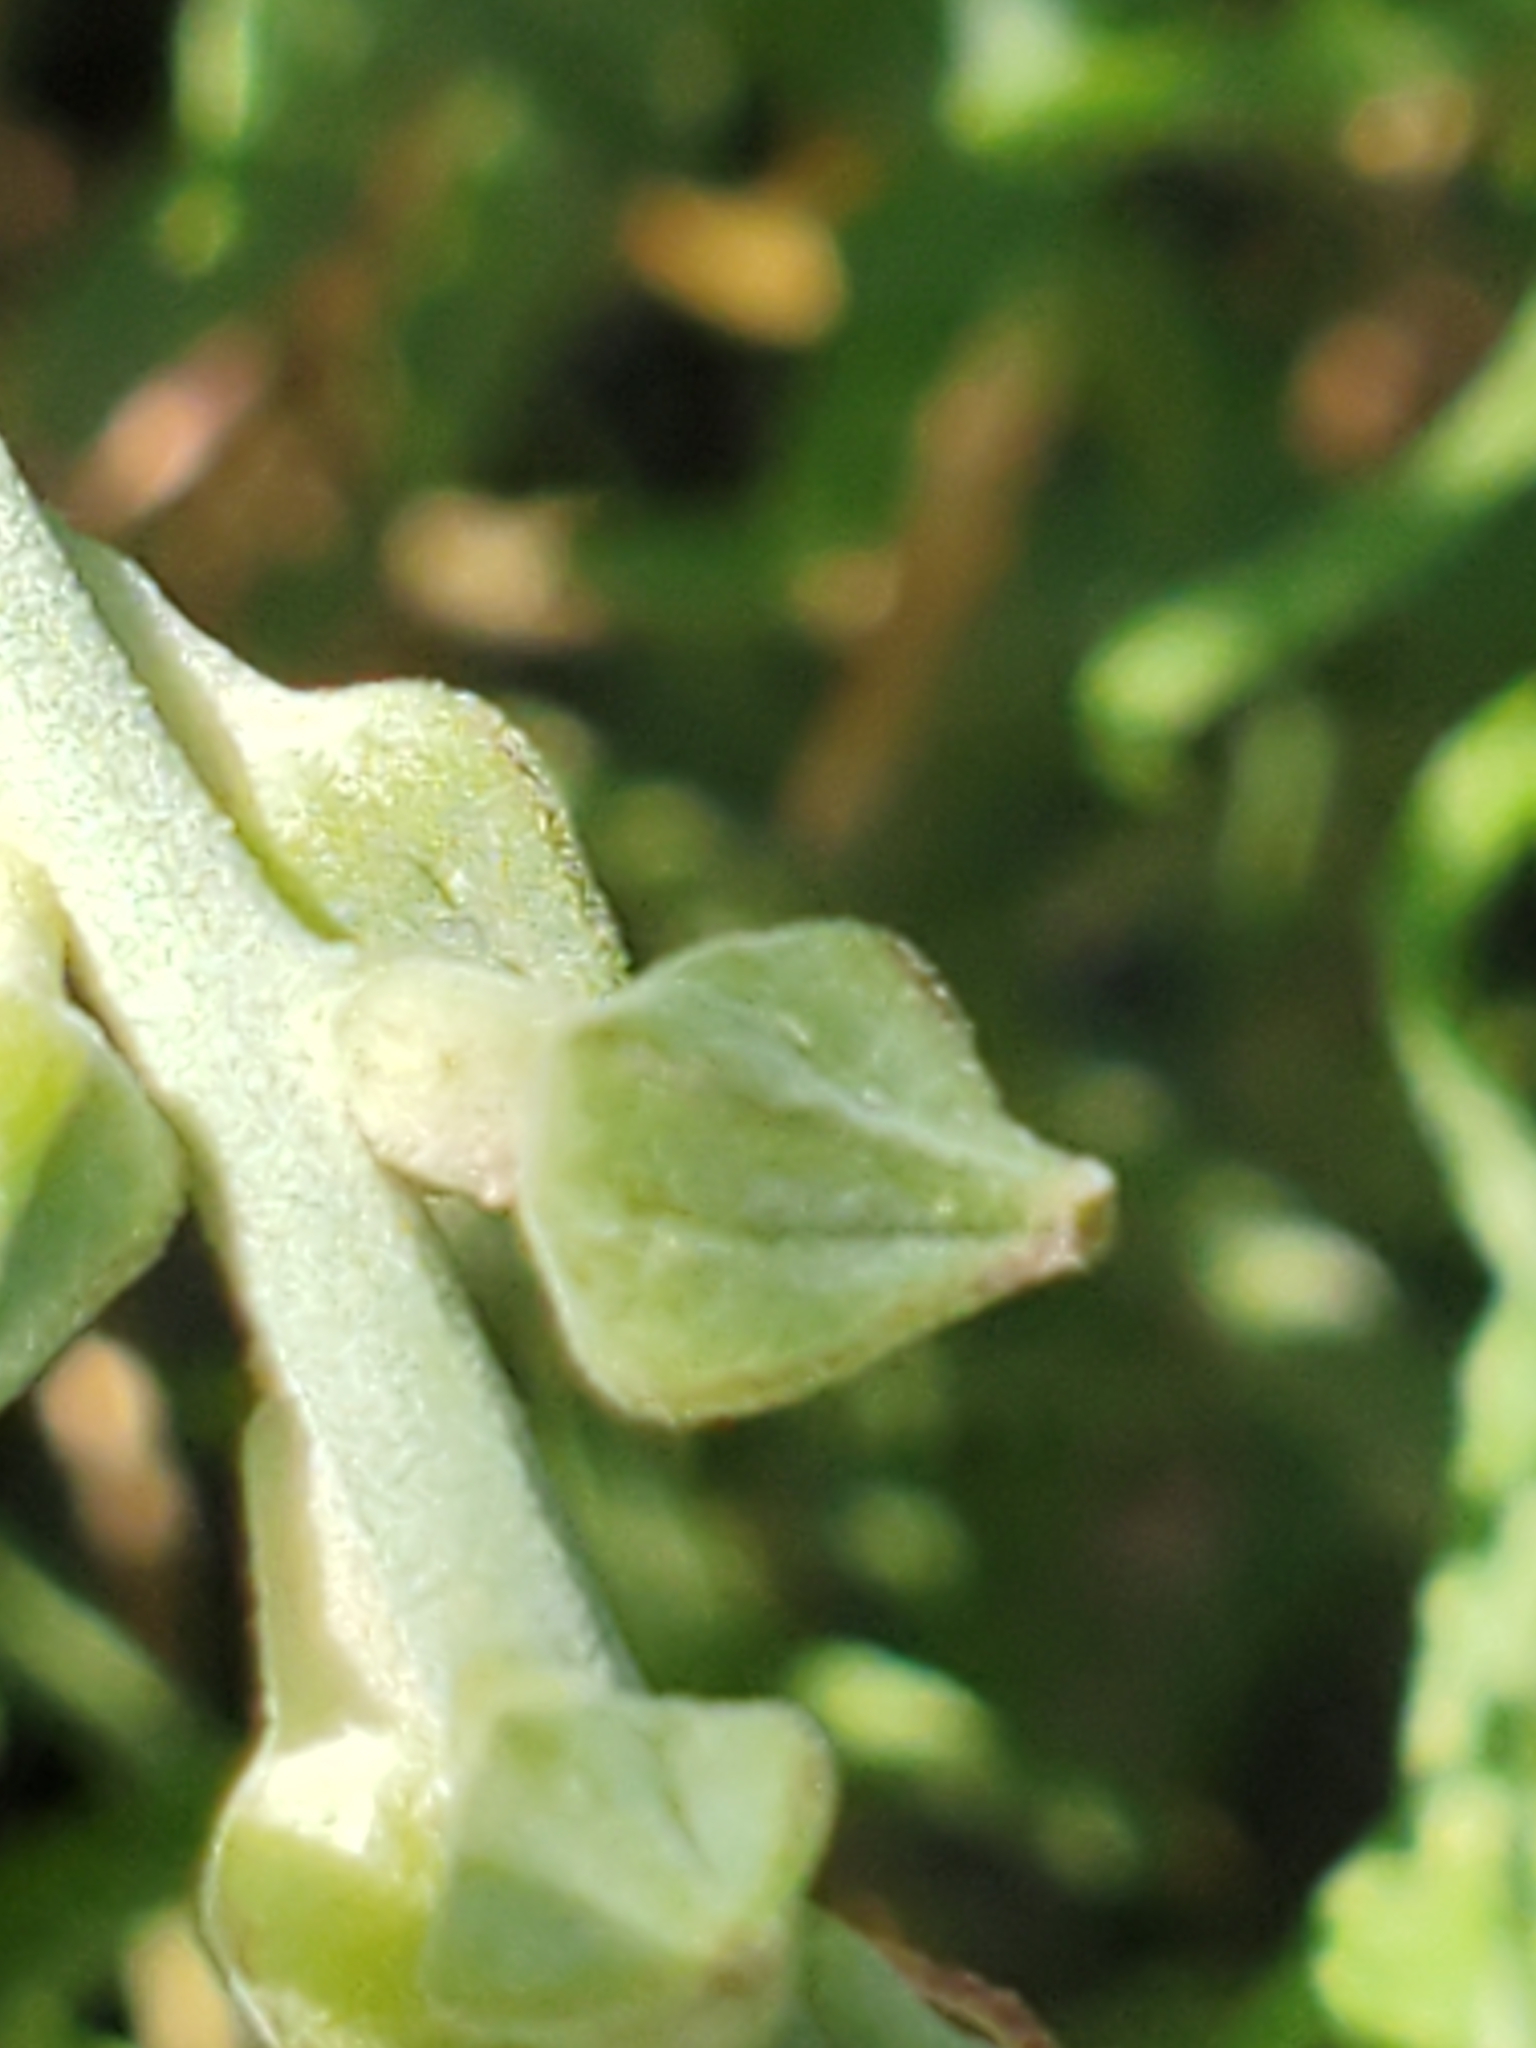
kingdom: Plantae
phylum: Tracheophyta
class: Magnoliopsida
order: Myrtales
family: Onagraceae
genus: Oenothera
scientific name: Oenothera suffrutescens
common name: Scarlet beeblossom
